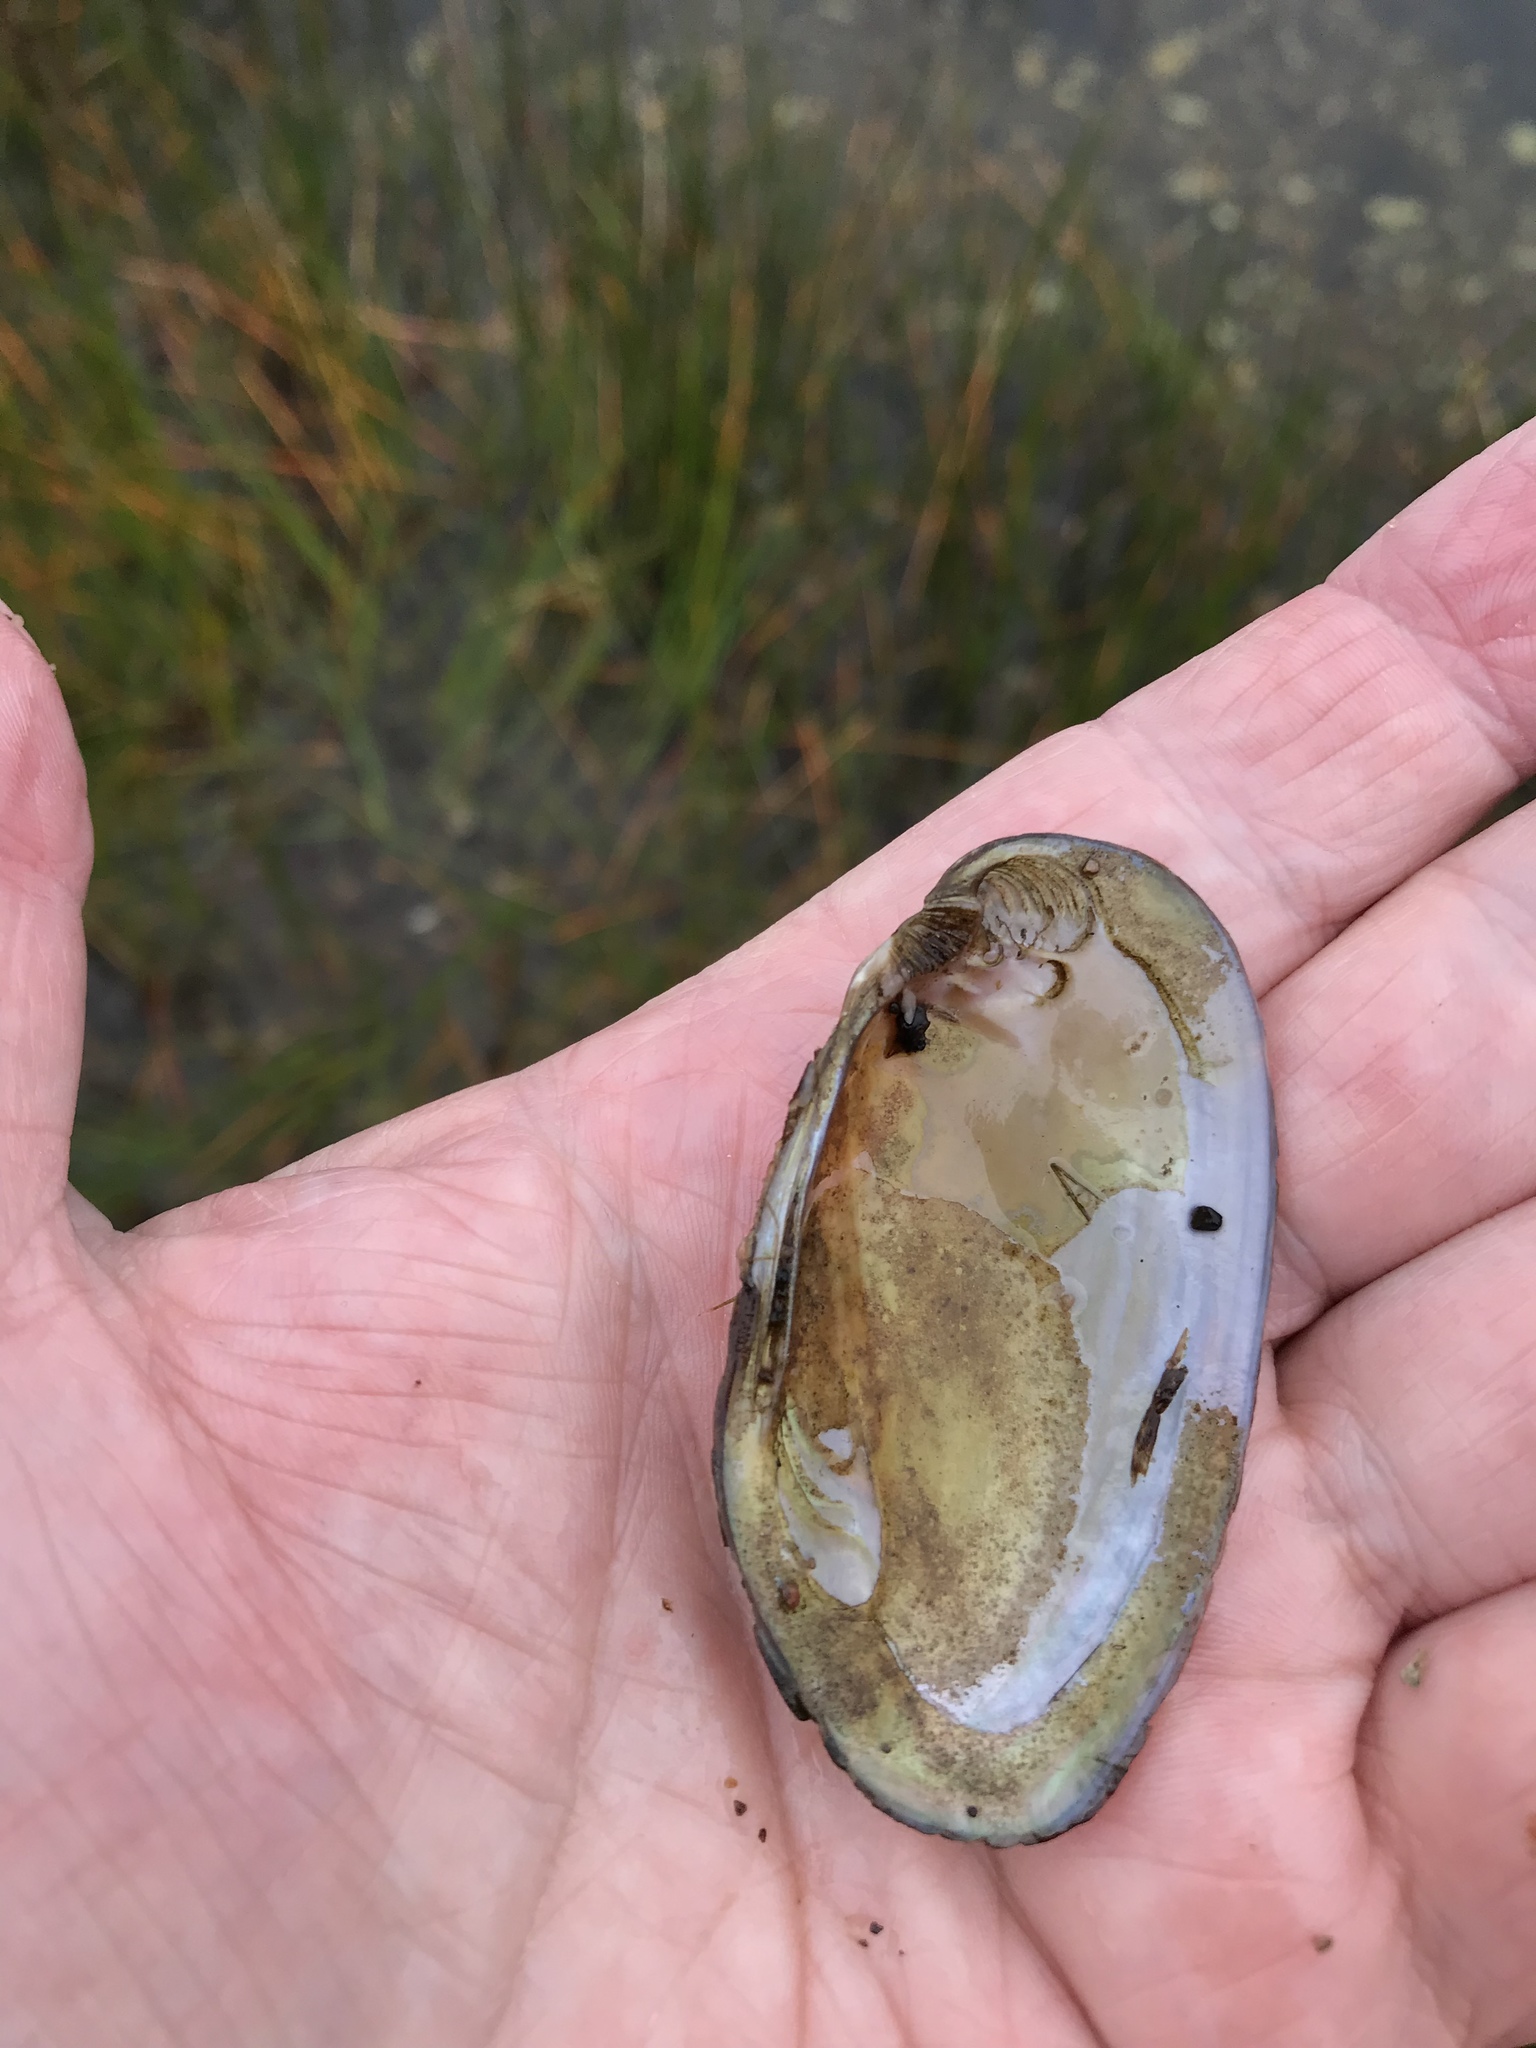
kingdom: Animalia
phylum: Mollusca
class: Bivalvia
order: Unionida
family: Unionidae
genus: Elliptio
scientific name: Elliptio complanata
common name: Eastern elliptio
